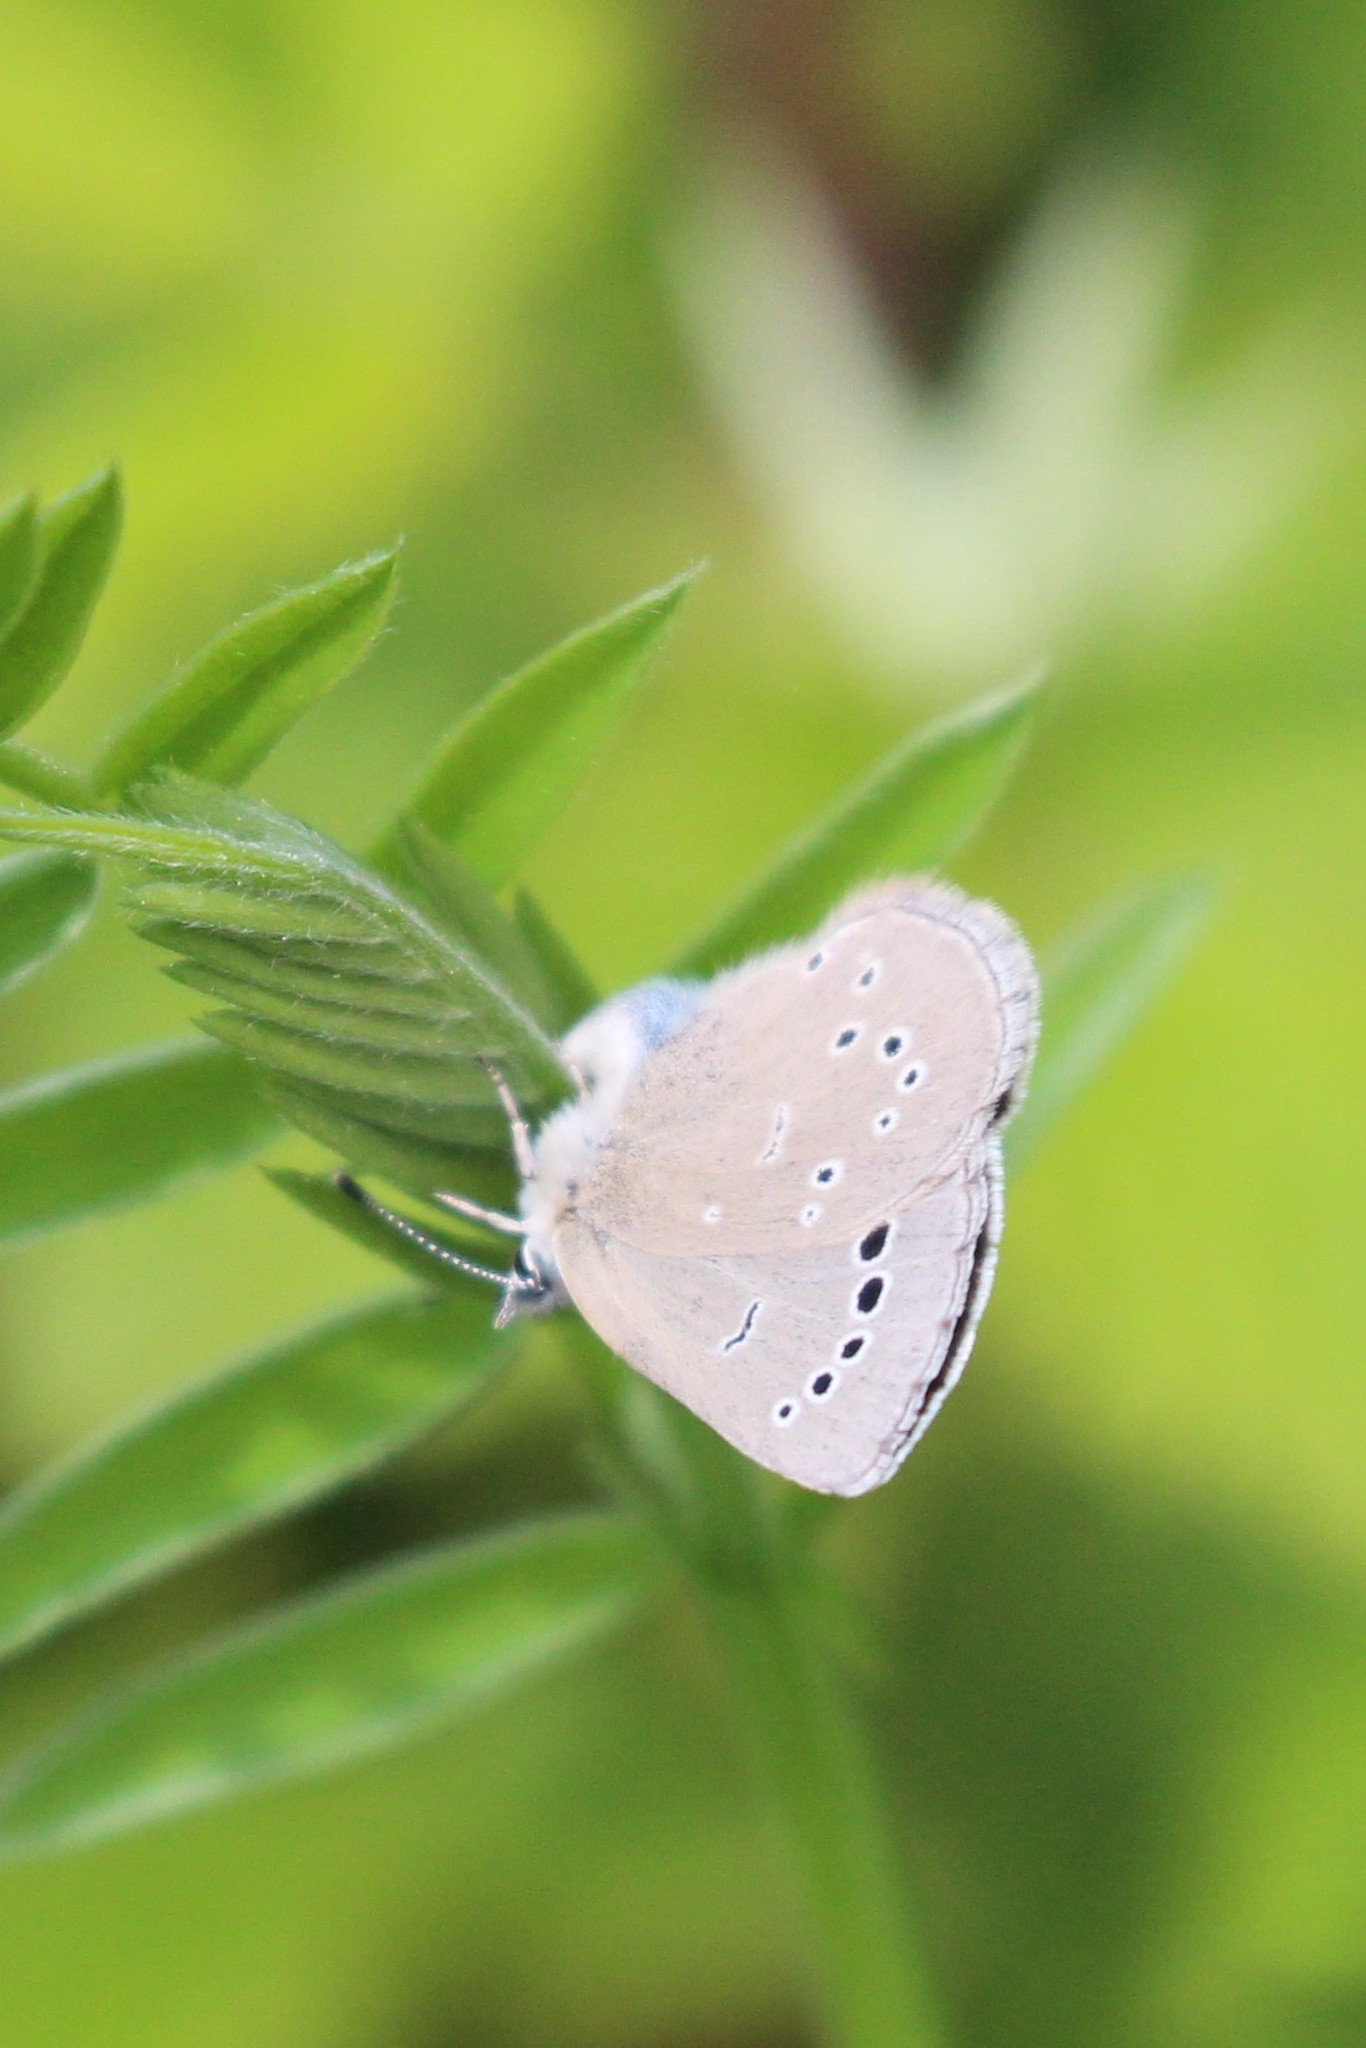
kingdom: Animalia
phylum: Arthropoda
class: Insecta
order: Lepidoptera
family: Lycaenidae
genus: Glaucopsyche
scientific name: Glaucopsyche lygdamus
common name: Silvery blue
